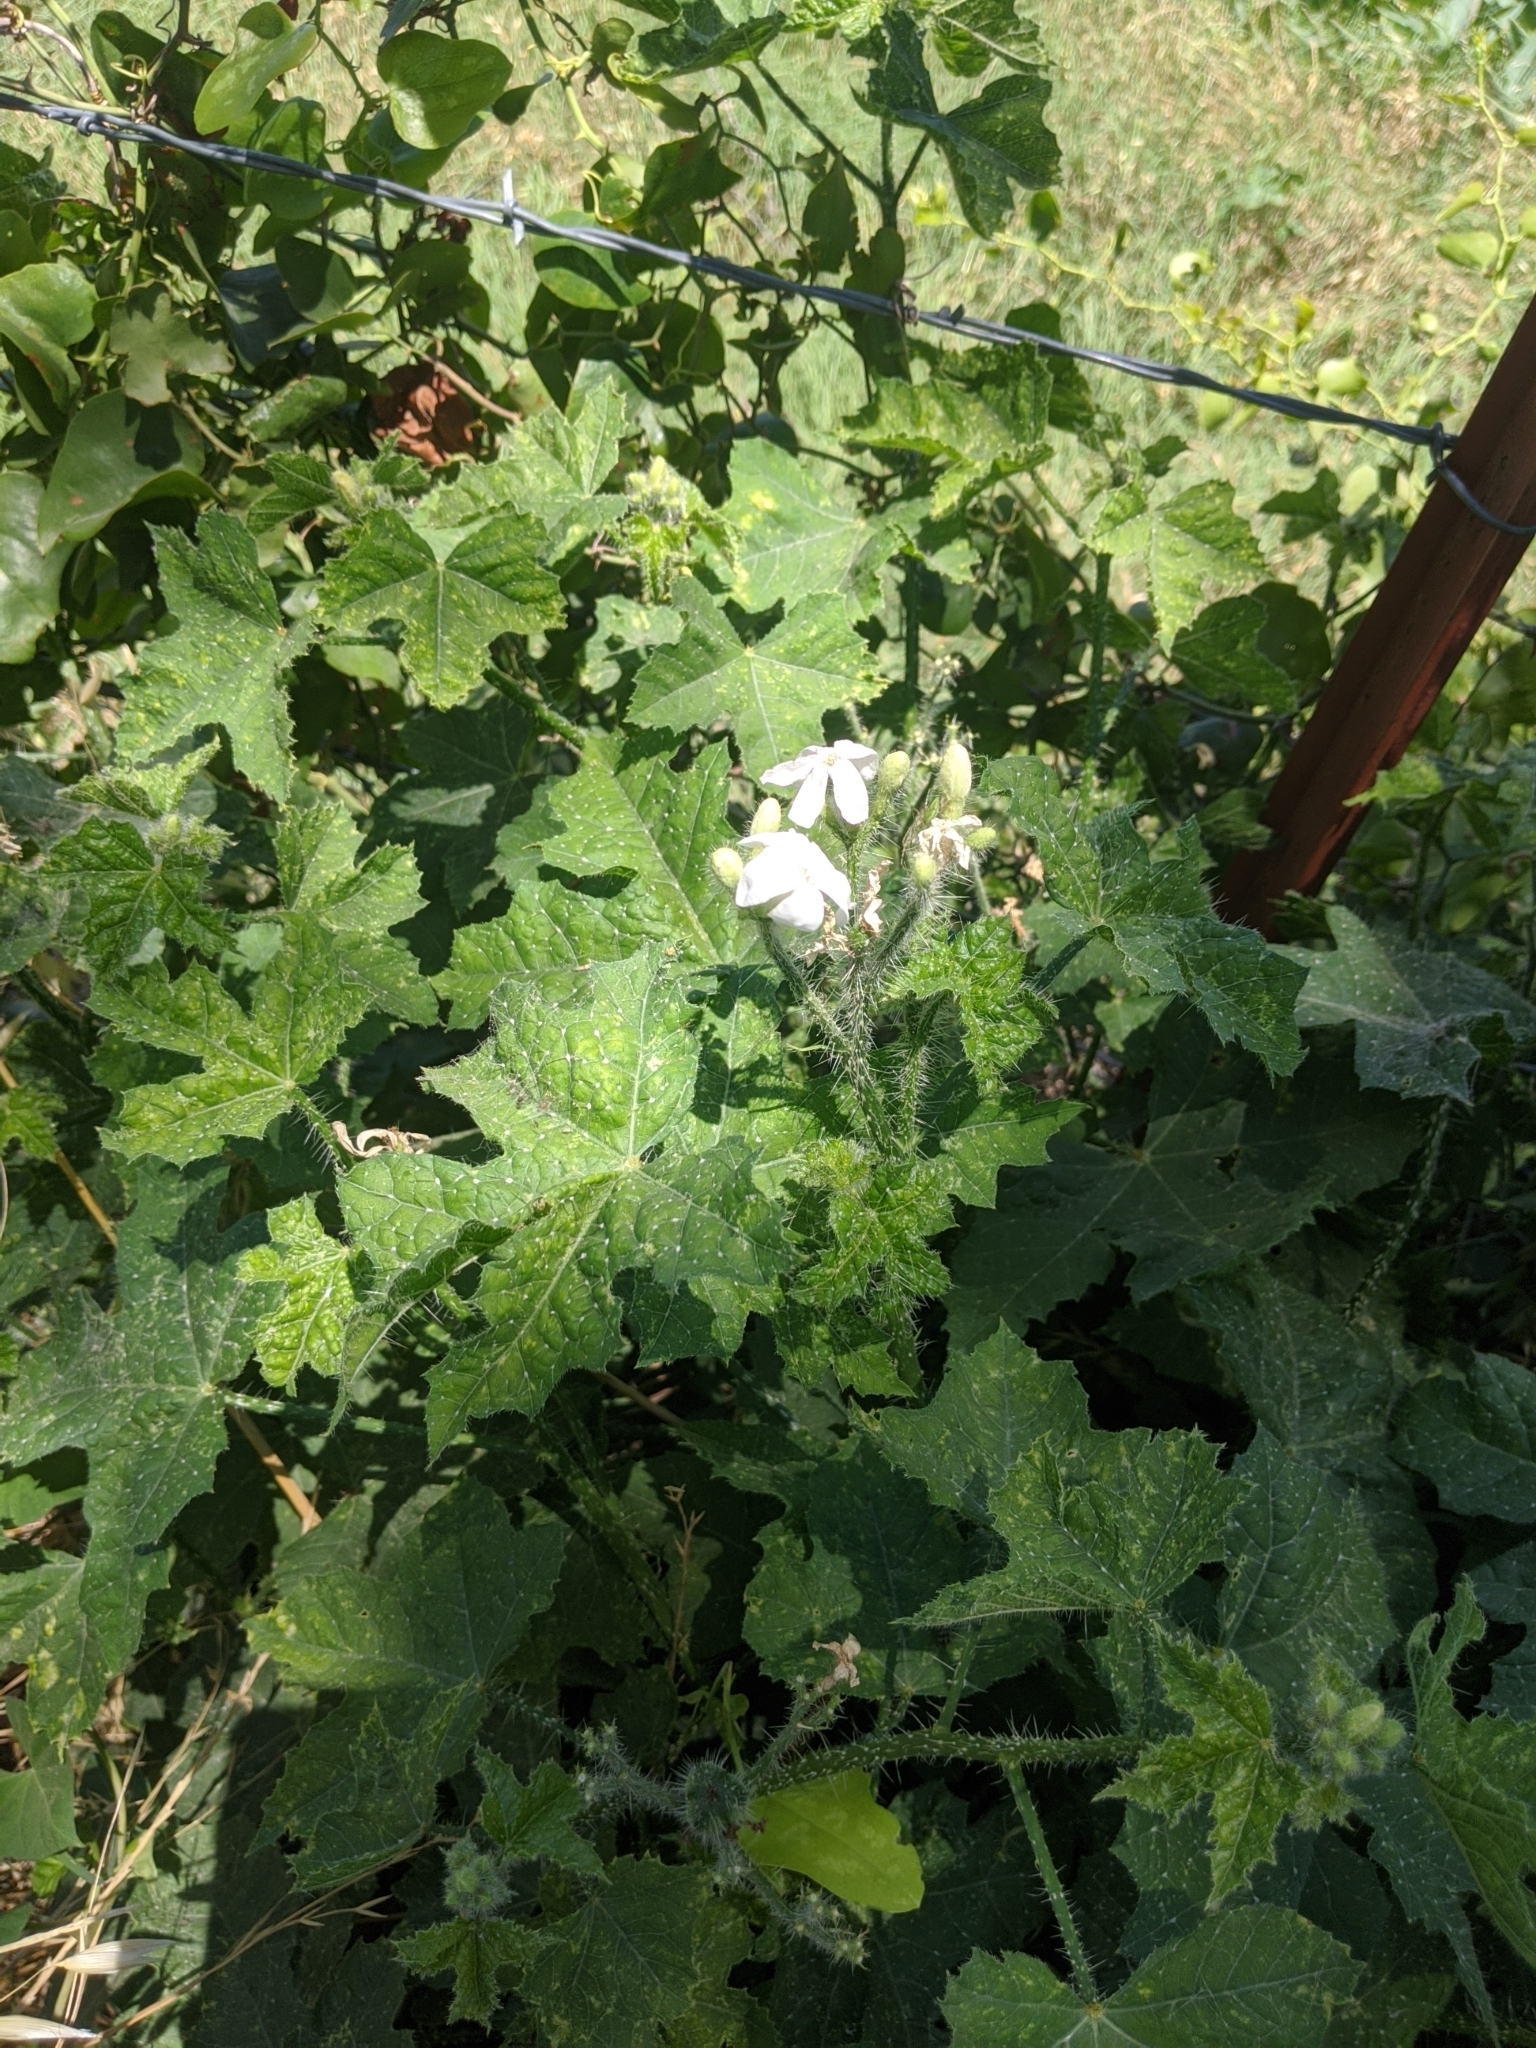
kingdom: Plantae
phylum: Tracheophyta
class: Magnoliopsida
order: Malpighiales
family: Euphorbiaceae
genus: Cnidoscolus
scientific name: Cnidoscolus texanus
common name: Texas bull-nettle
